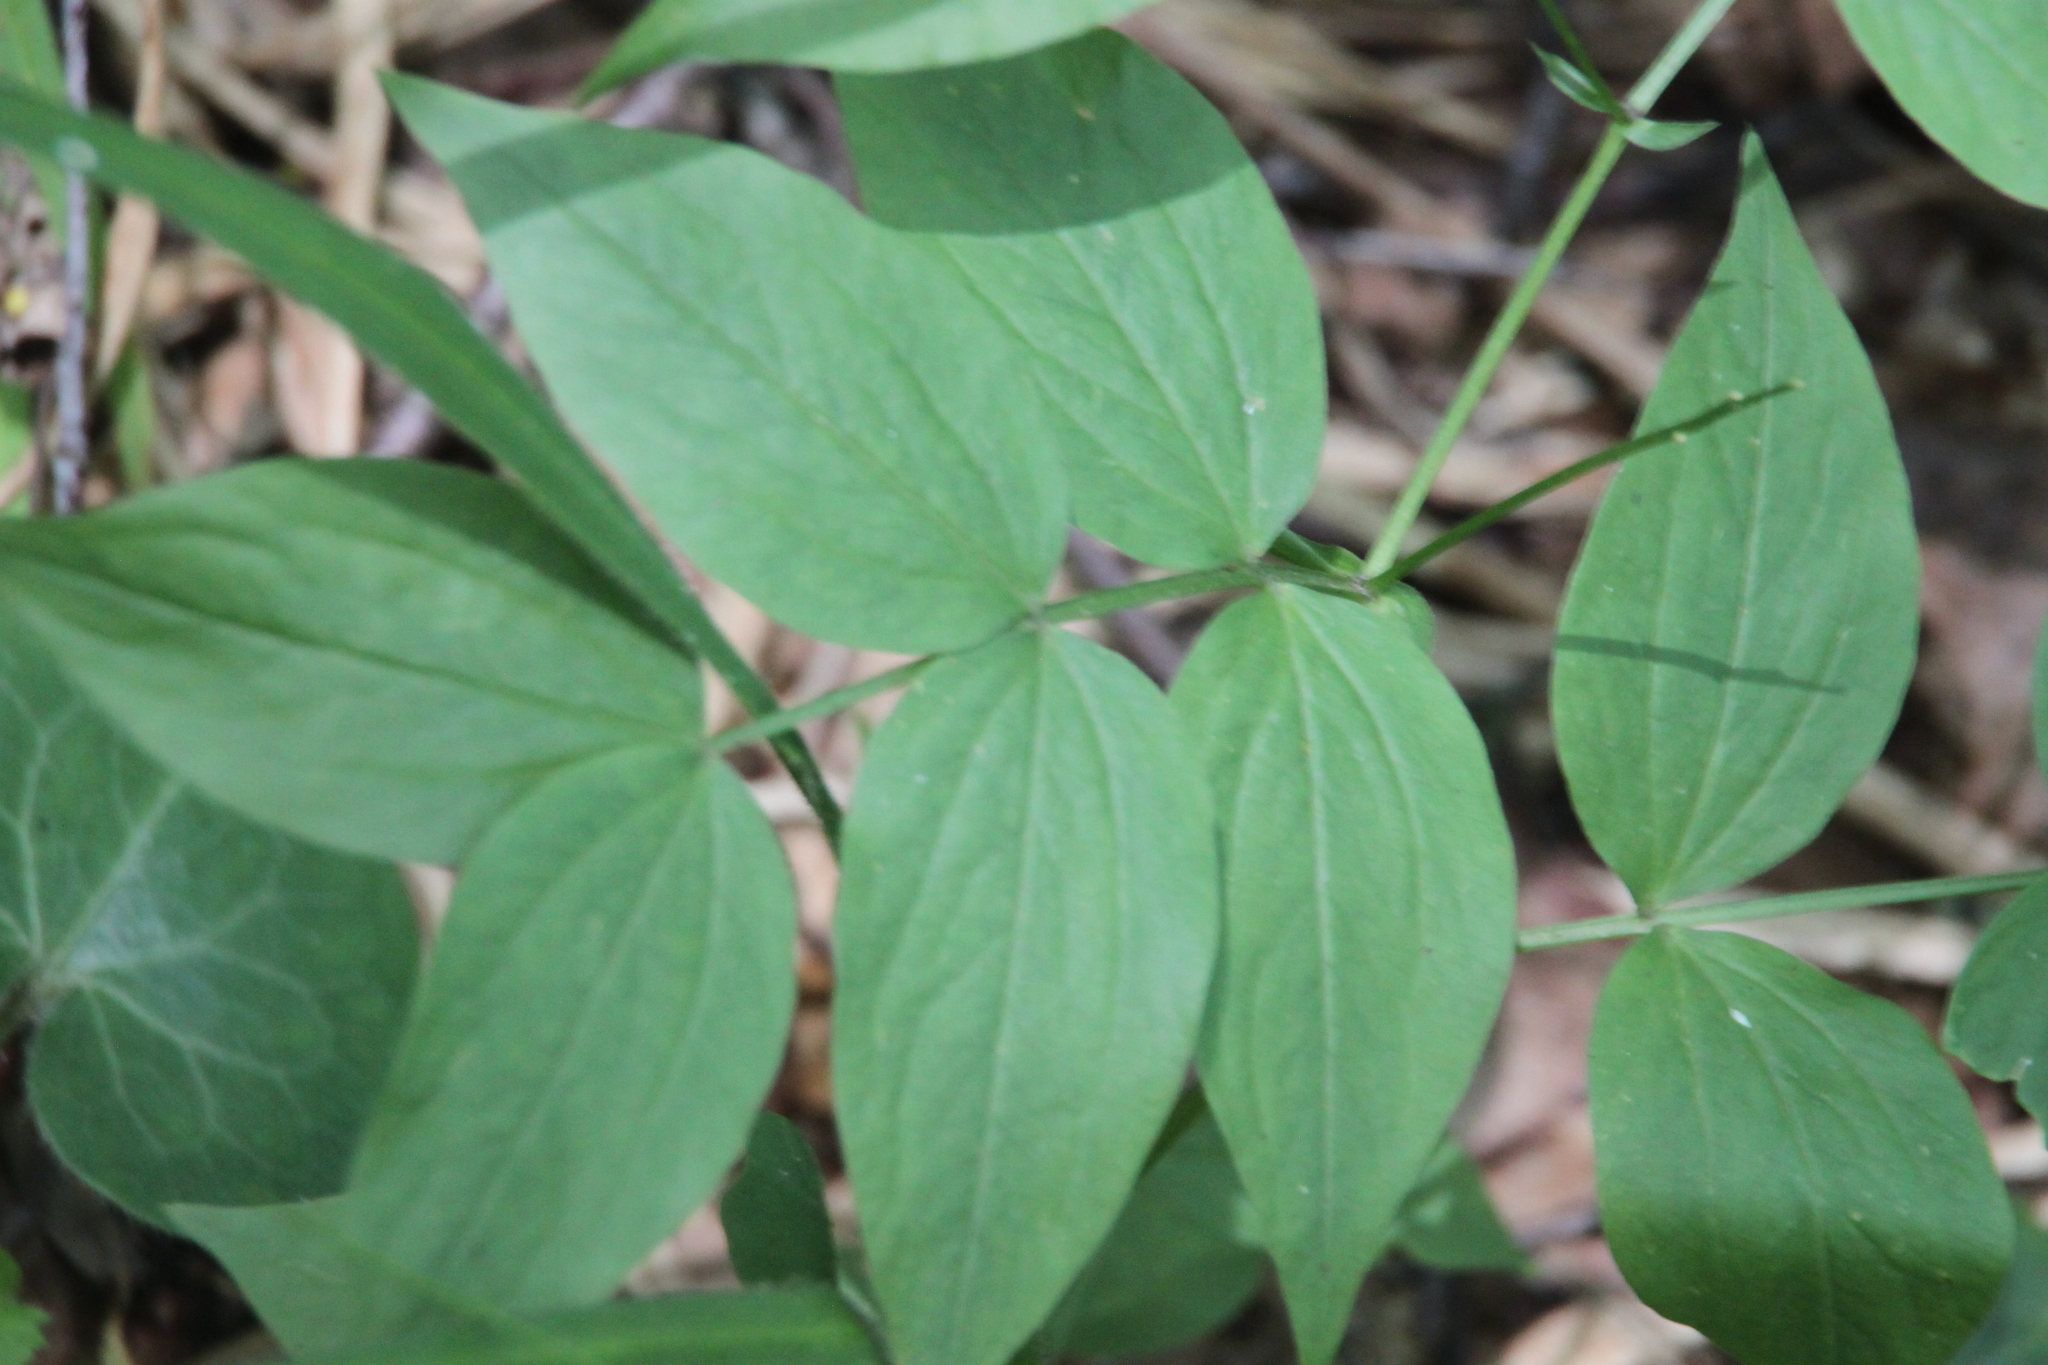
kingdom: Plantae
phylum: Tracheophyta
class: Magnoliopsida
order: Fabales
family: Fabaceae
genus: Lathyrus
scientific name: Lathyrus vernus
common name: Spring pea
